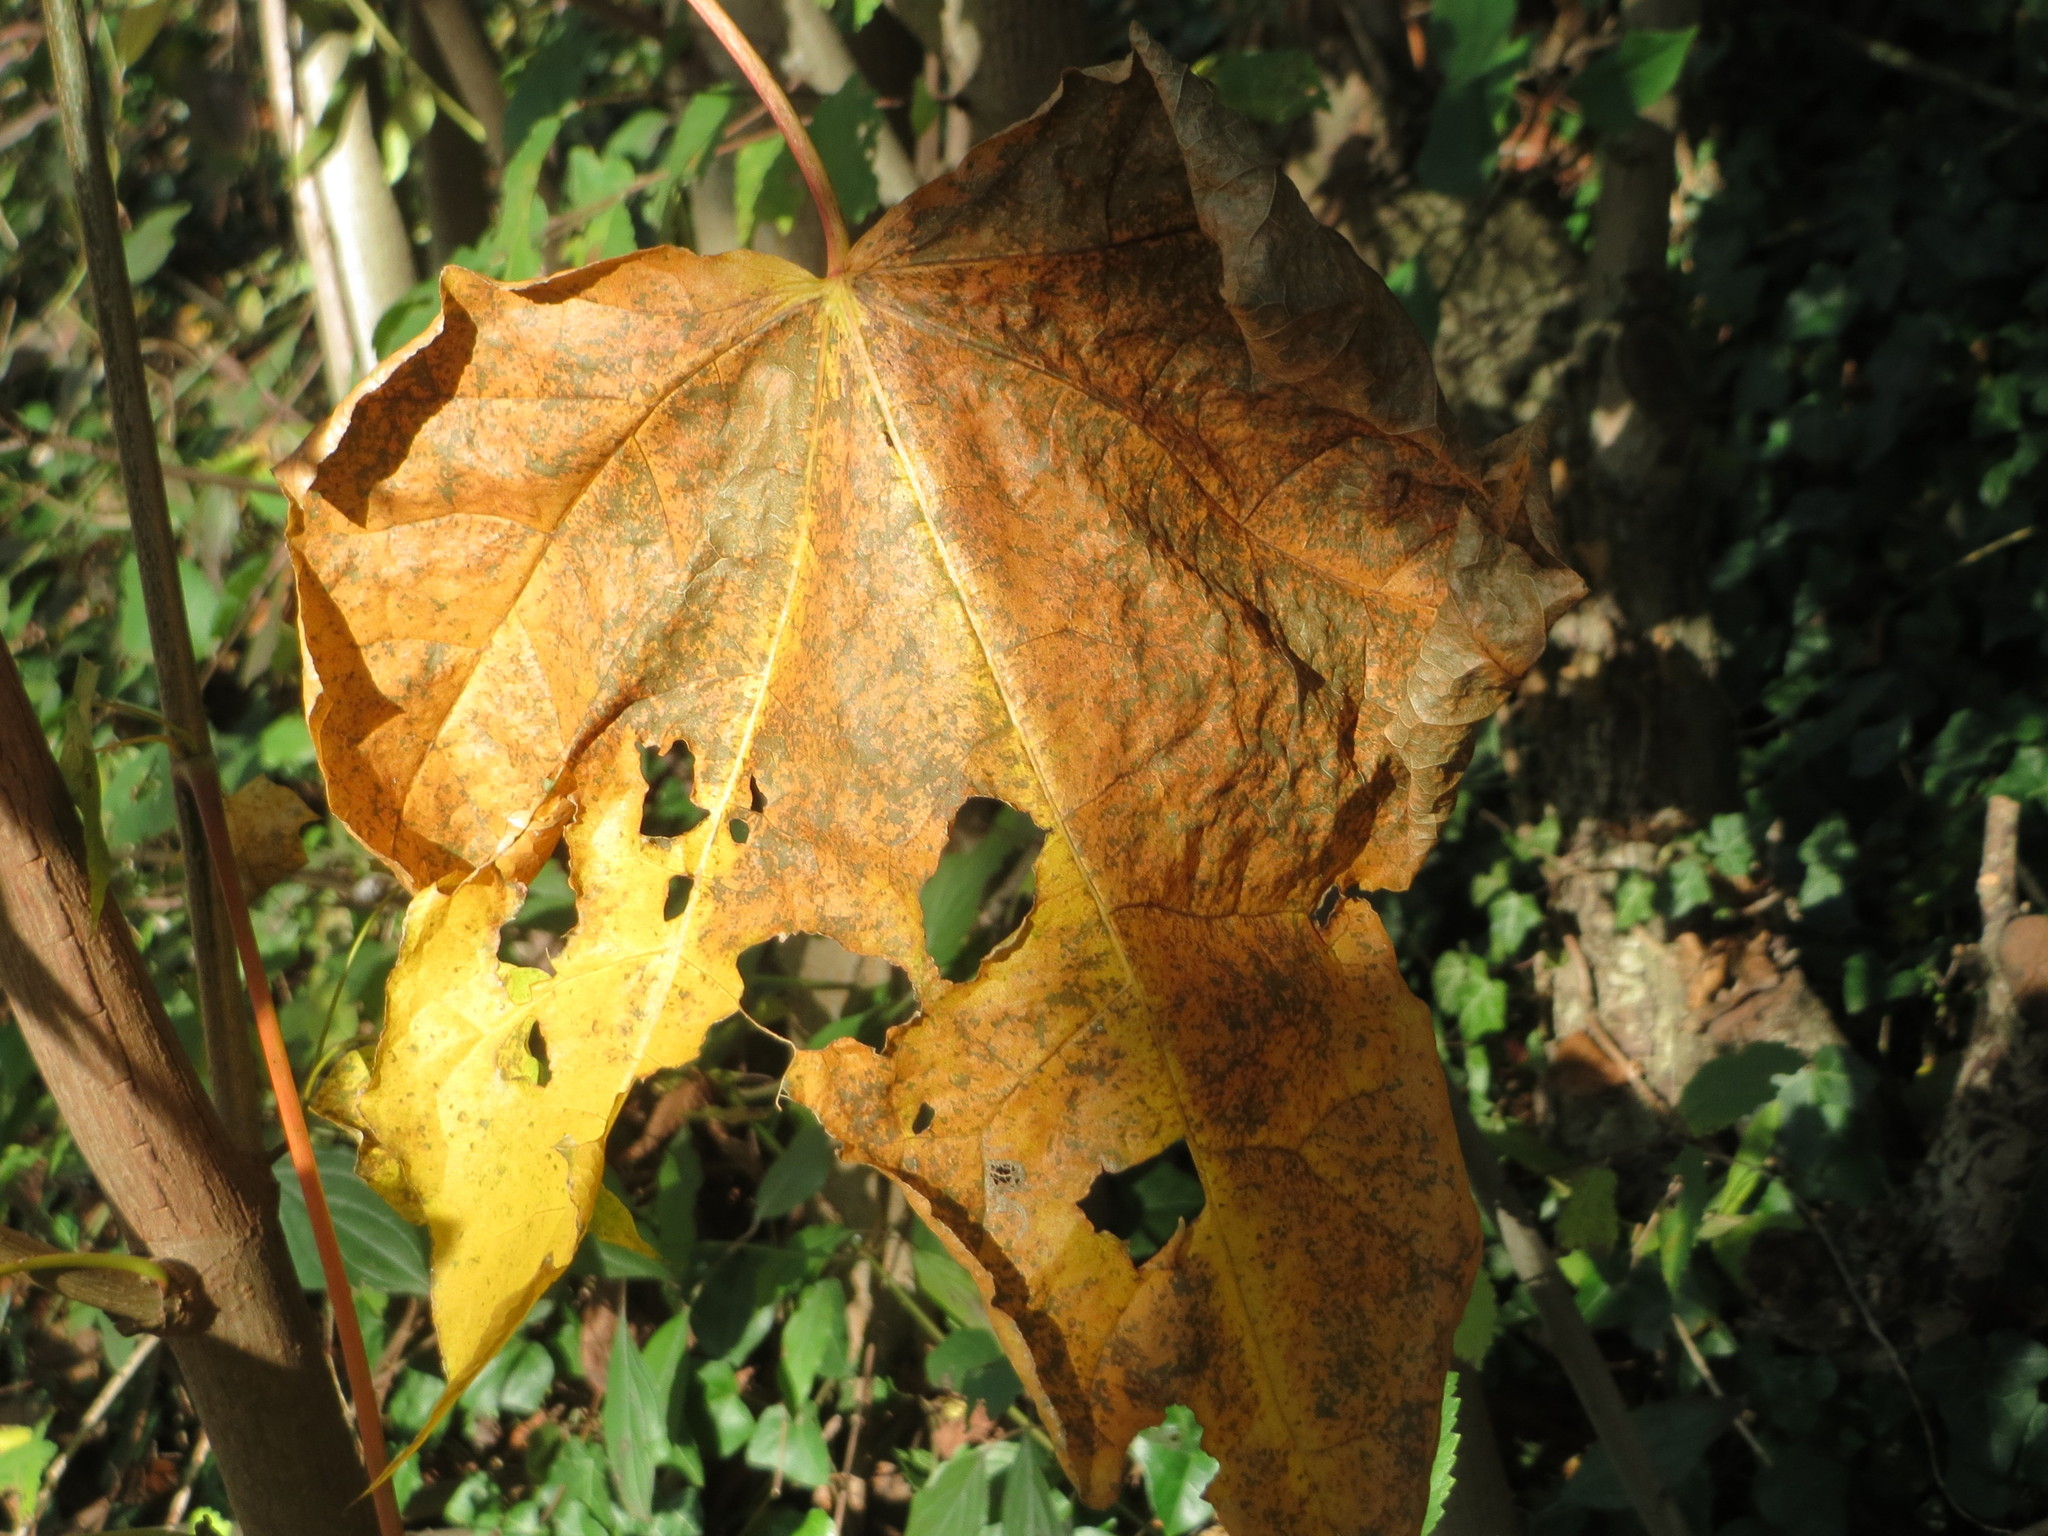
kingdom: Plantae
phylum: Tracheophyta
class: Magnoliopsida
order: Sapindales
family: Sapindaceae
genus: Acer
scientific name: Acer platanoides
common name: Norway maple
